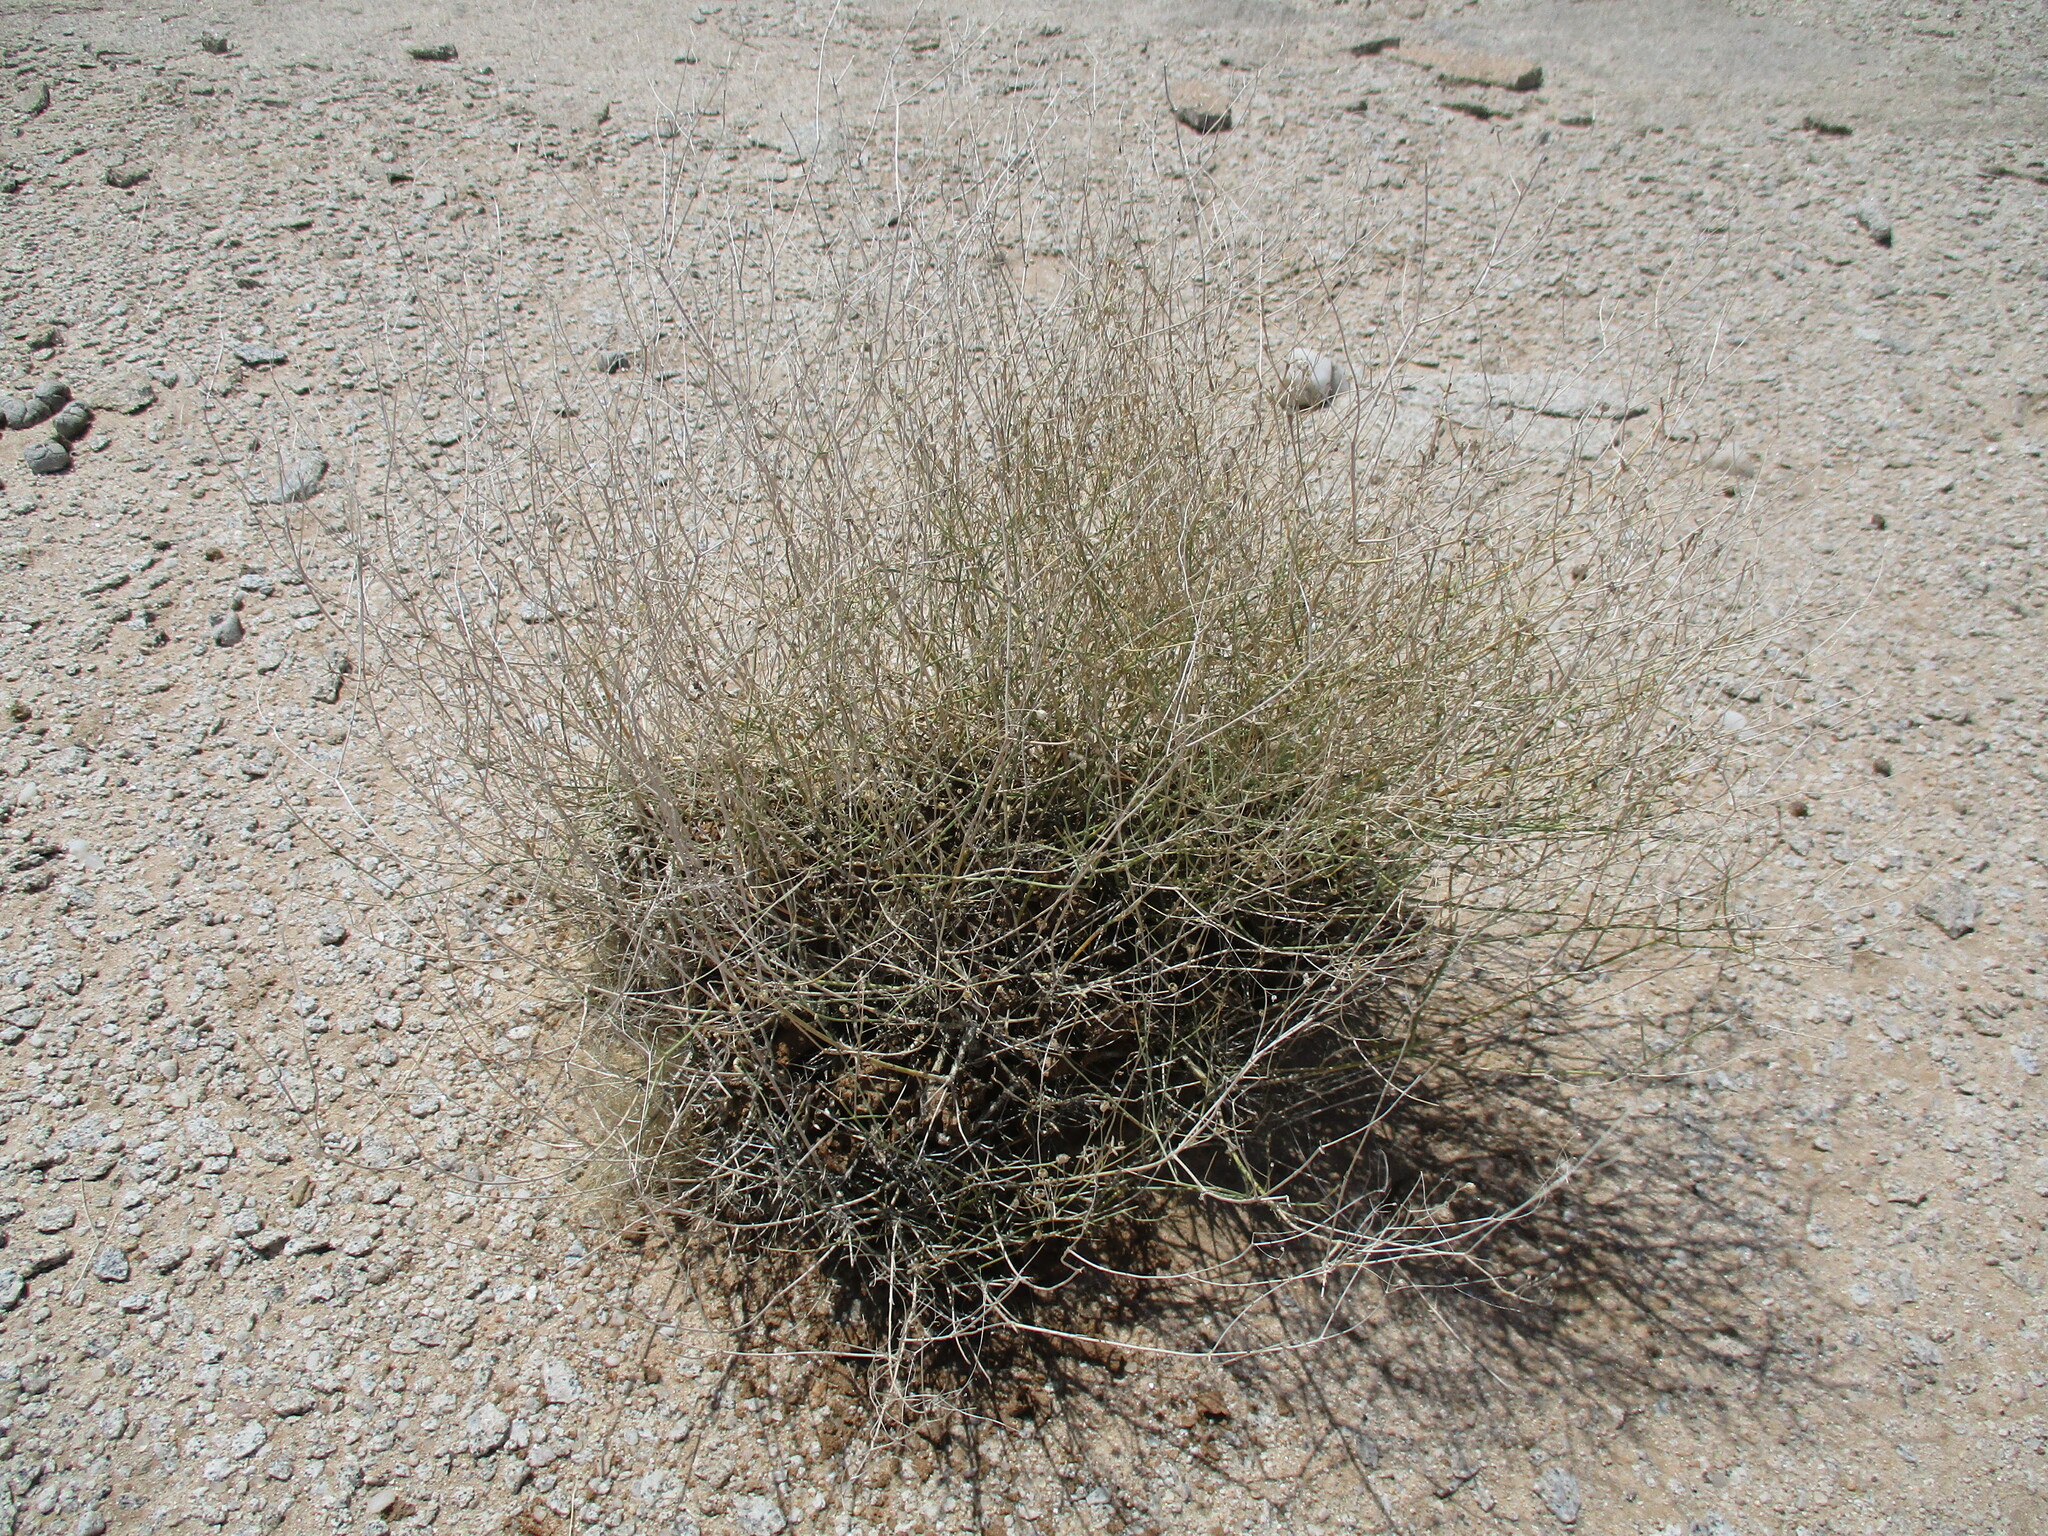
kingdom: Plantae
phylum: Tracheophyta
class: Magnoliopsida
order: Gentianales
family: Rubiaceae
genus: Kohautia
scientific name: Kohautia cynanchica
